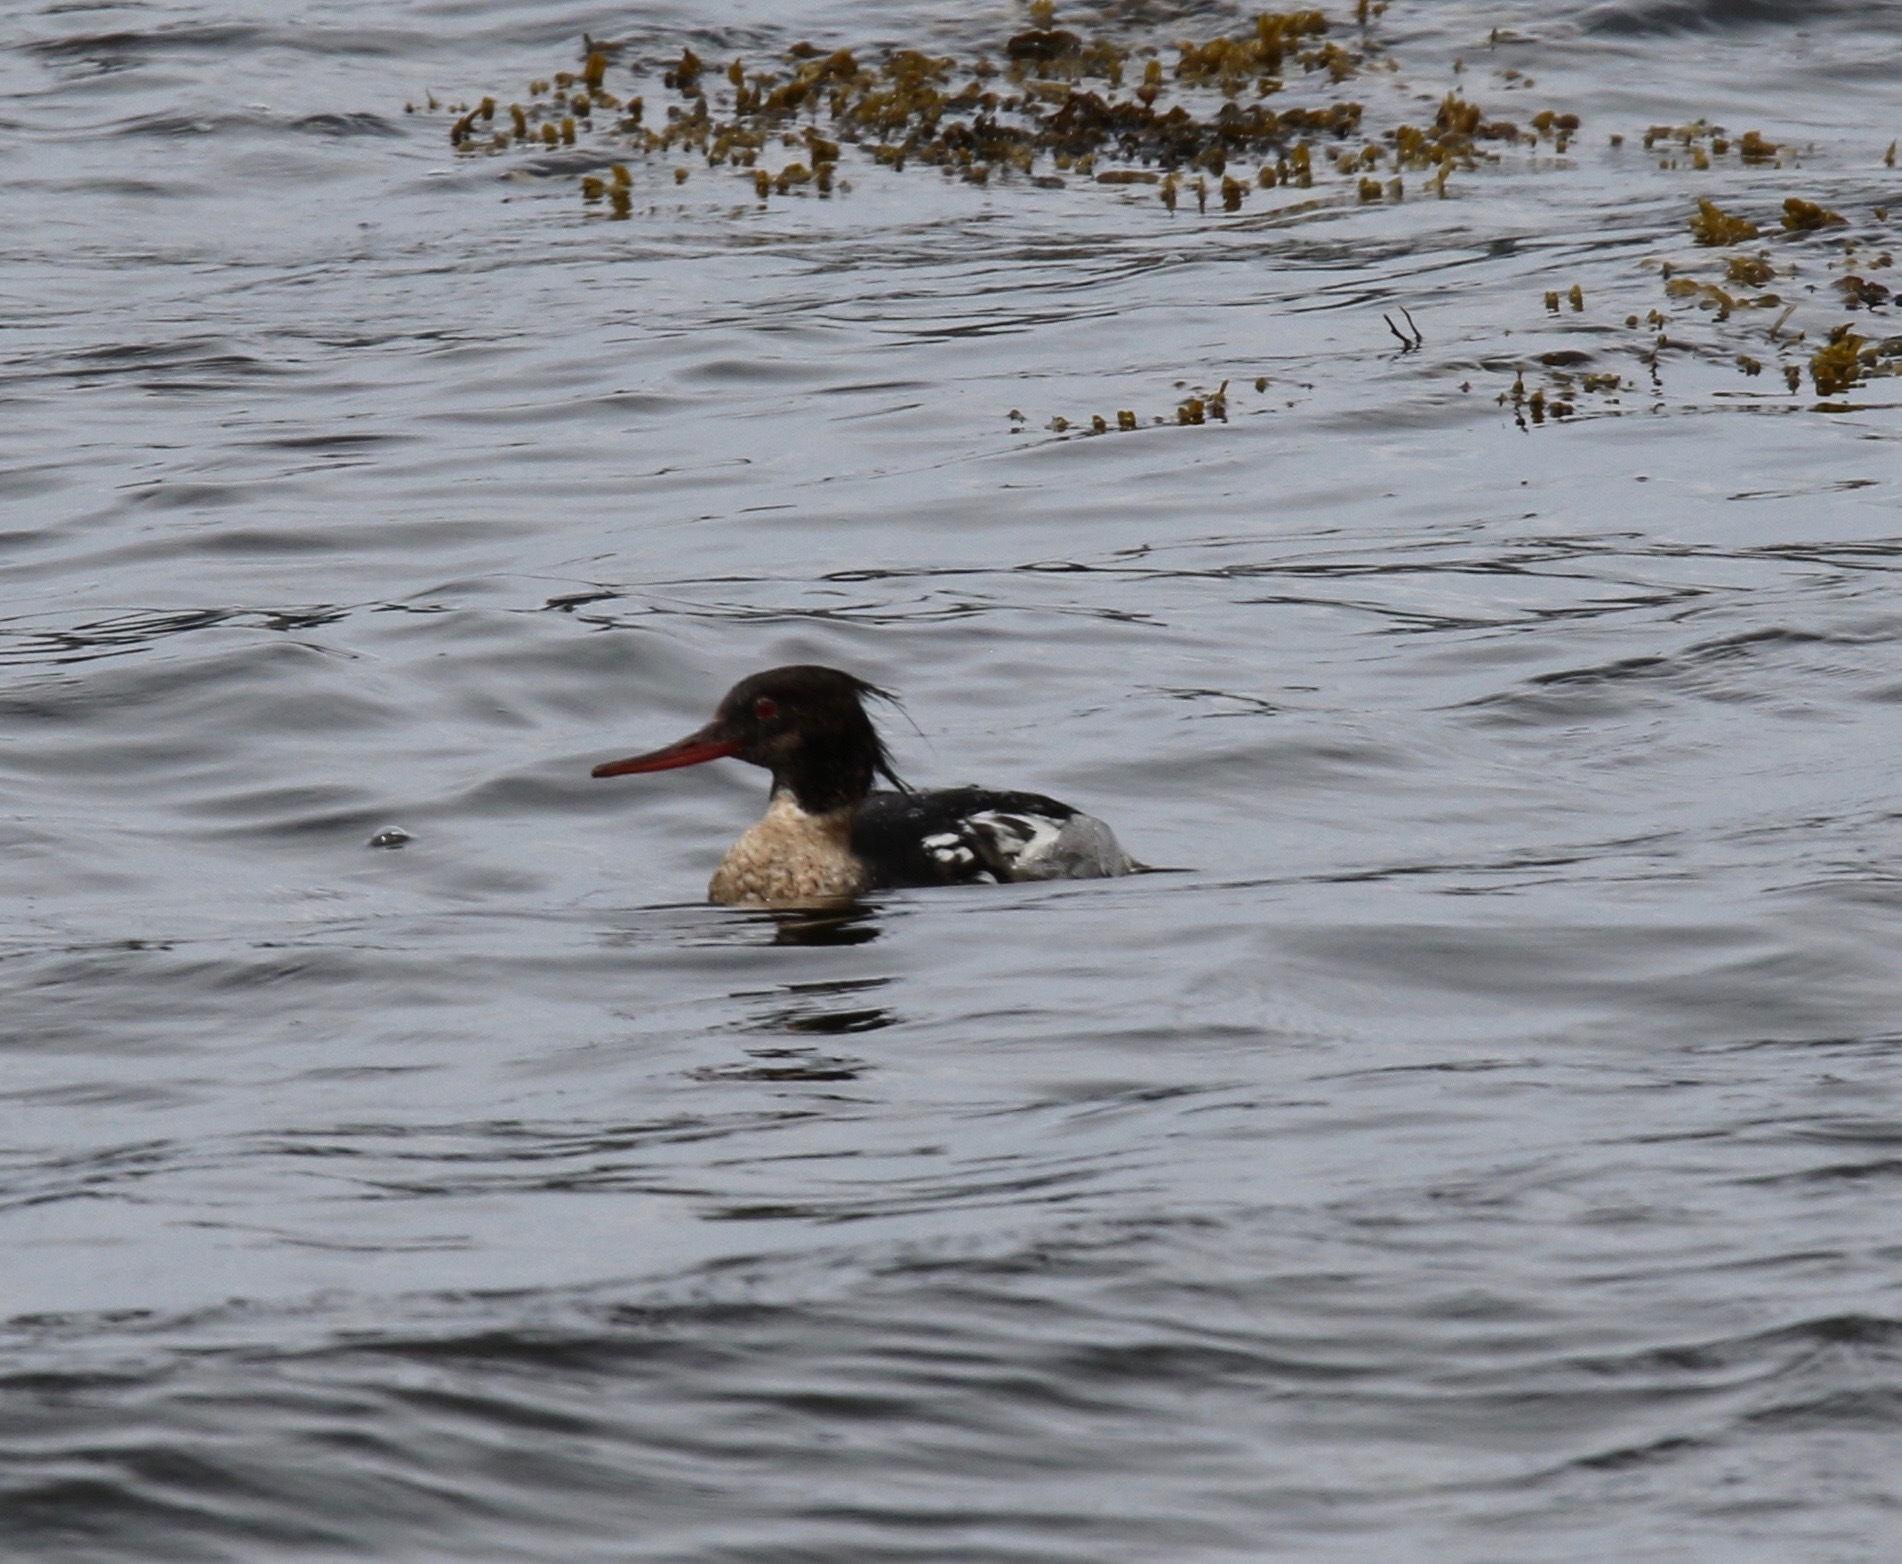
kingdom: Animalia
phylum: Chordata
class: Aves
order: Anseriformes
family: Anatidae
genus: Mergus
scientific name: Mergus serrator
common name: Red-breasted merganser
